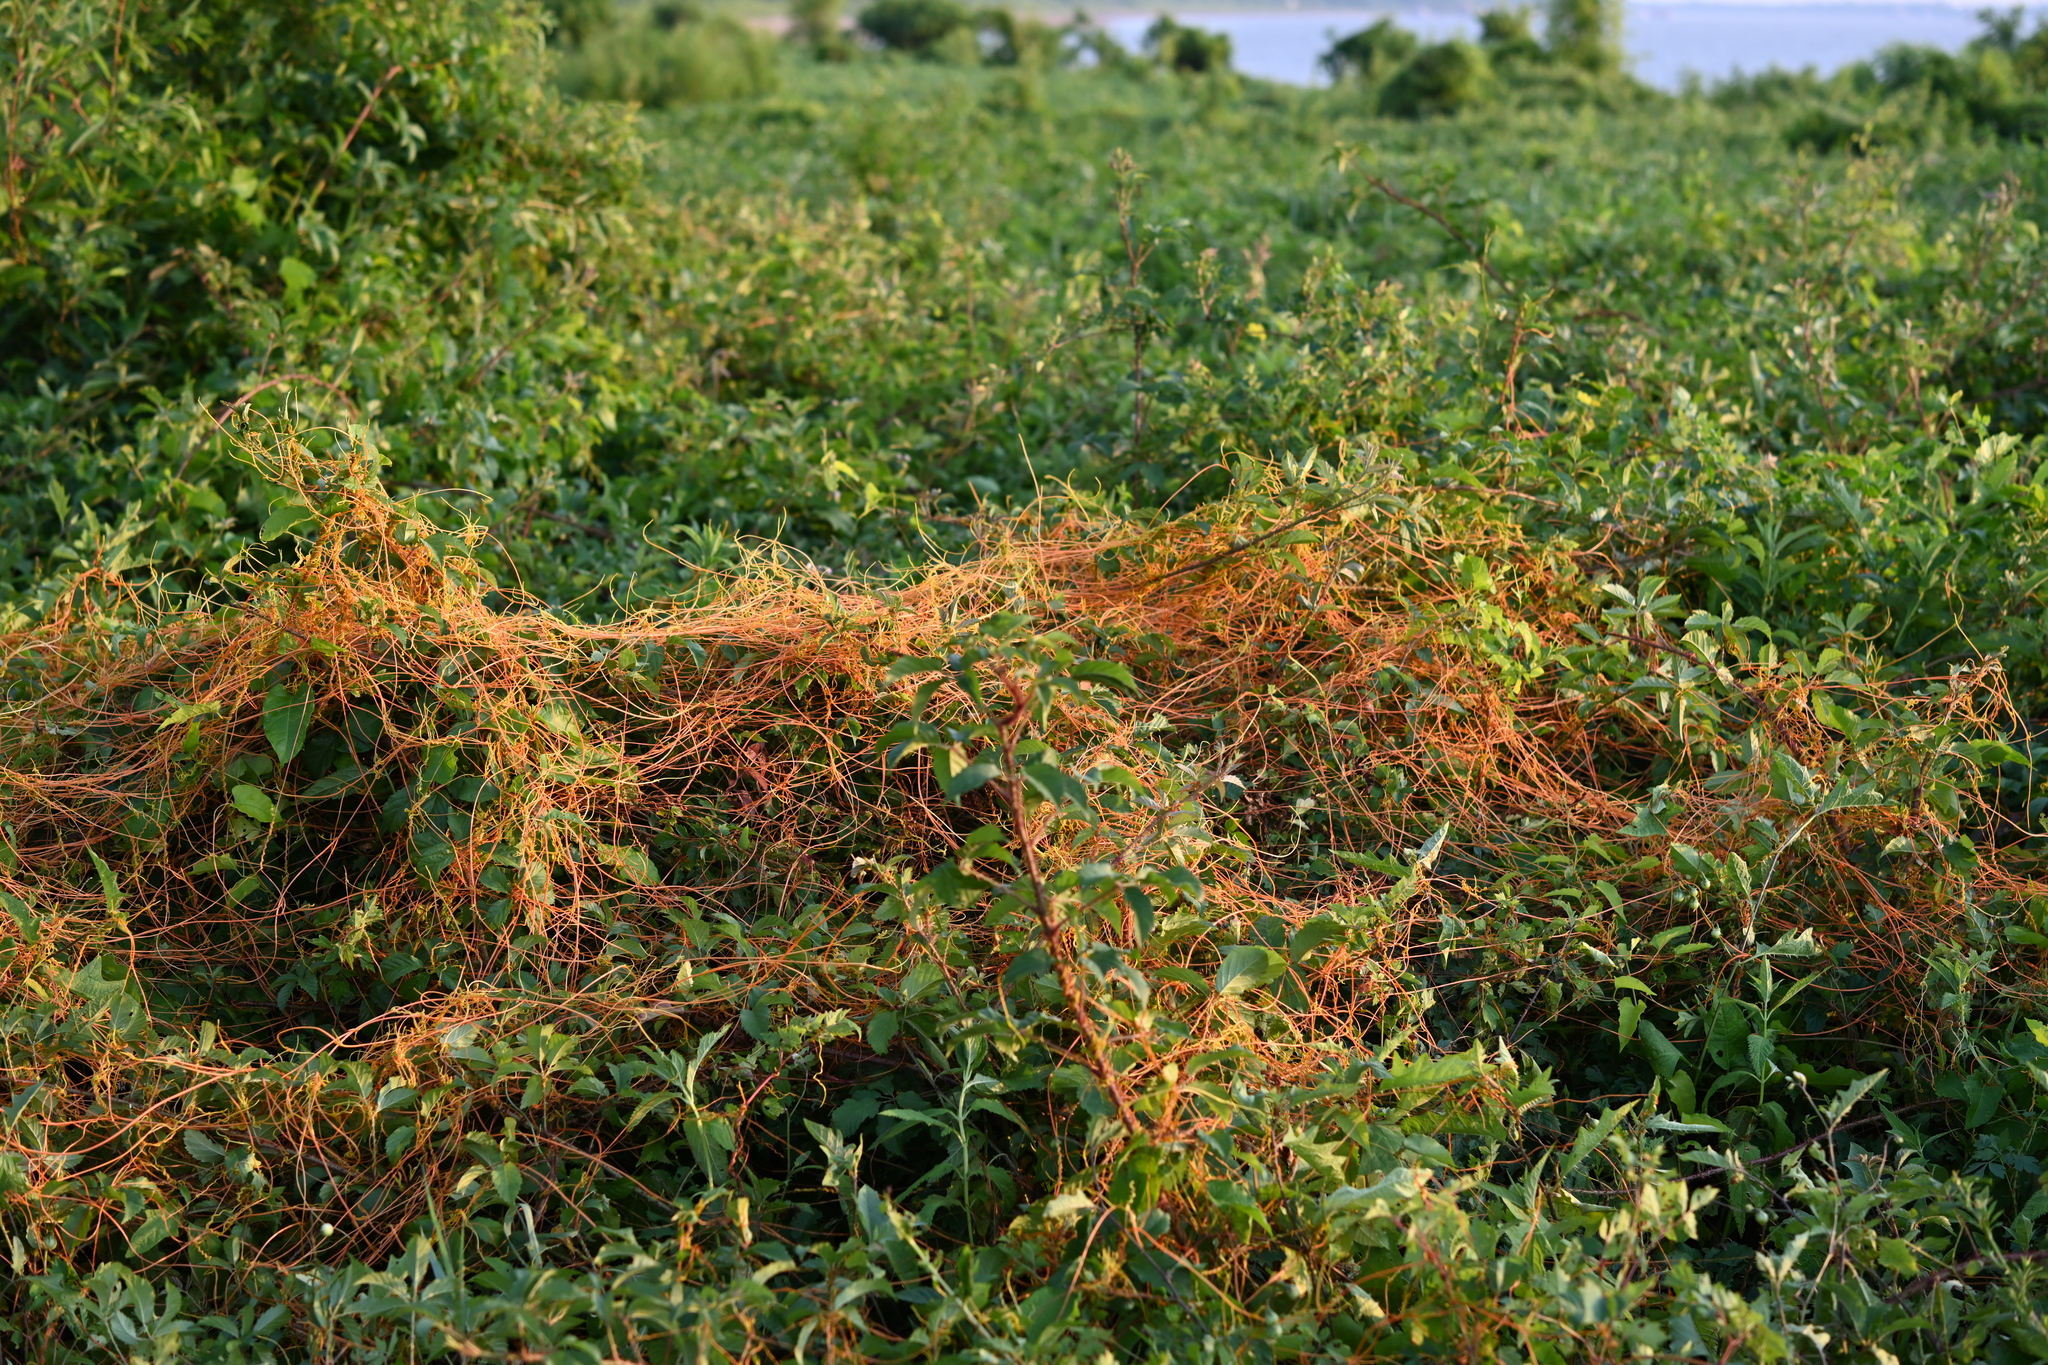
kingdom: Plantae
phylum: Tracheophyta
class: Magnoliopsida
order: Solanales
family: Convolvulaceae
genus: Cuscuta
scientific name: Cuscuta campestris
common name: Yellow dodder
